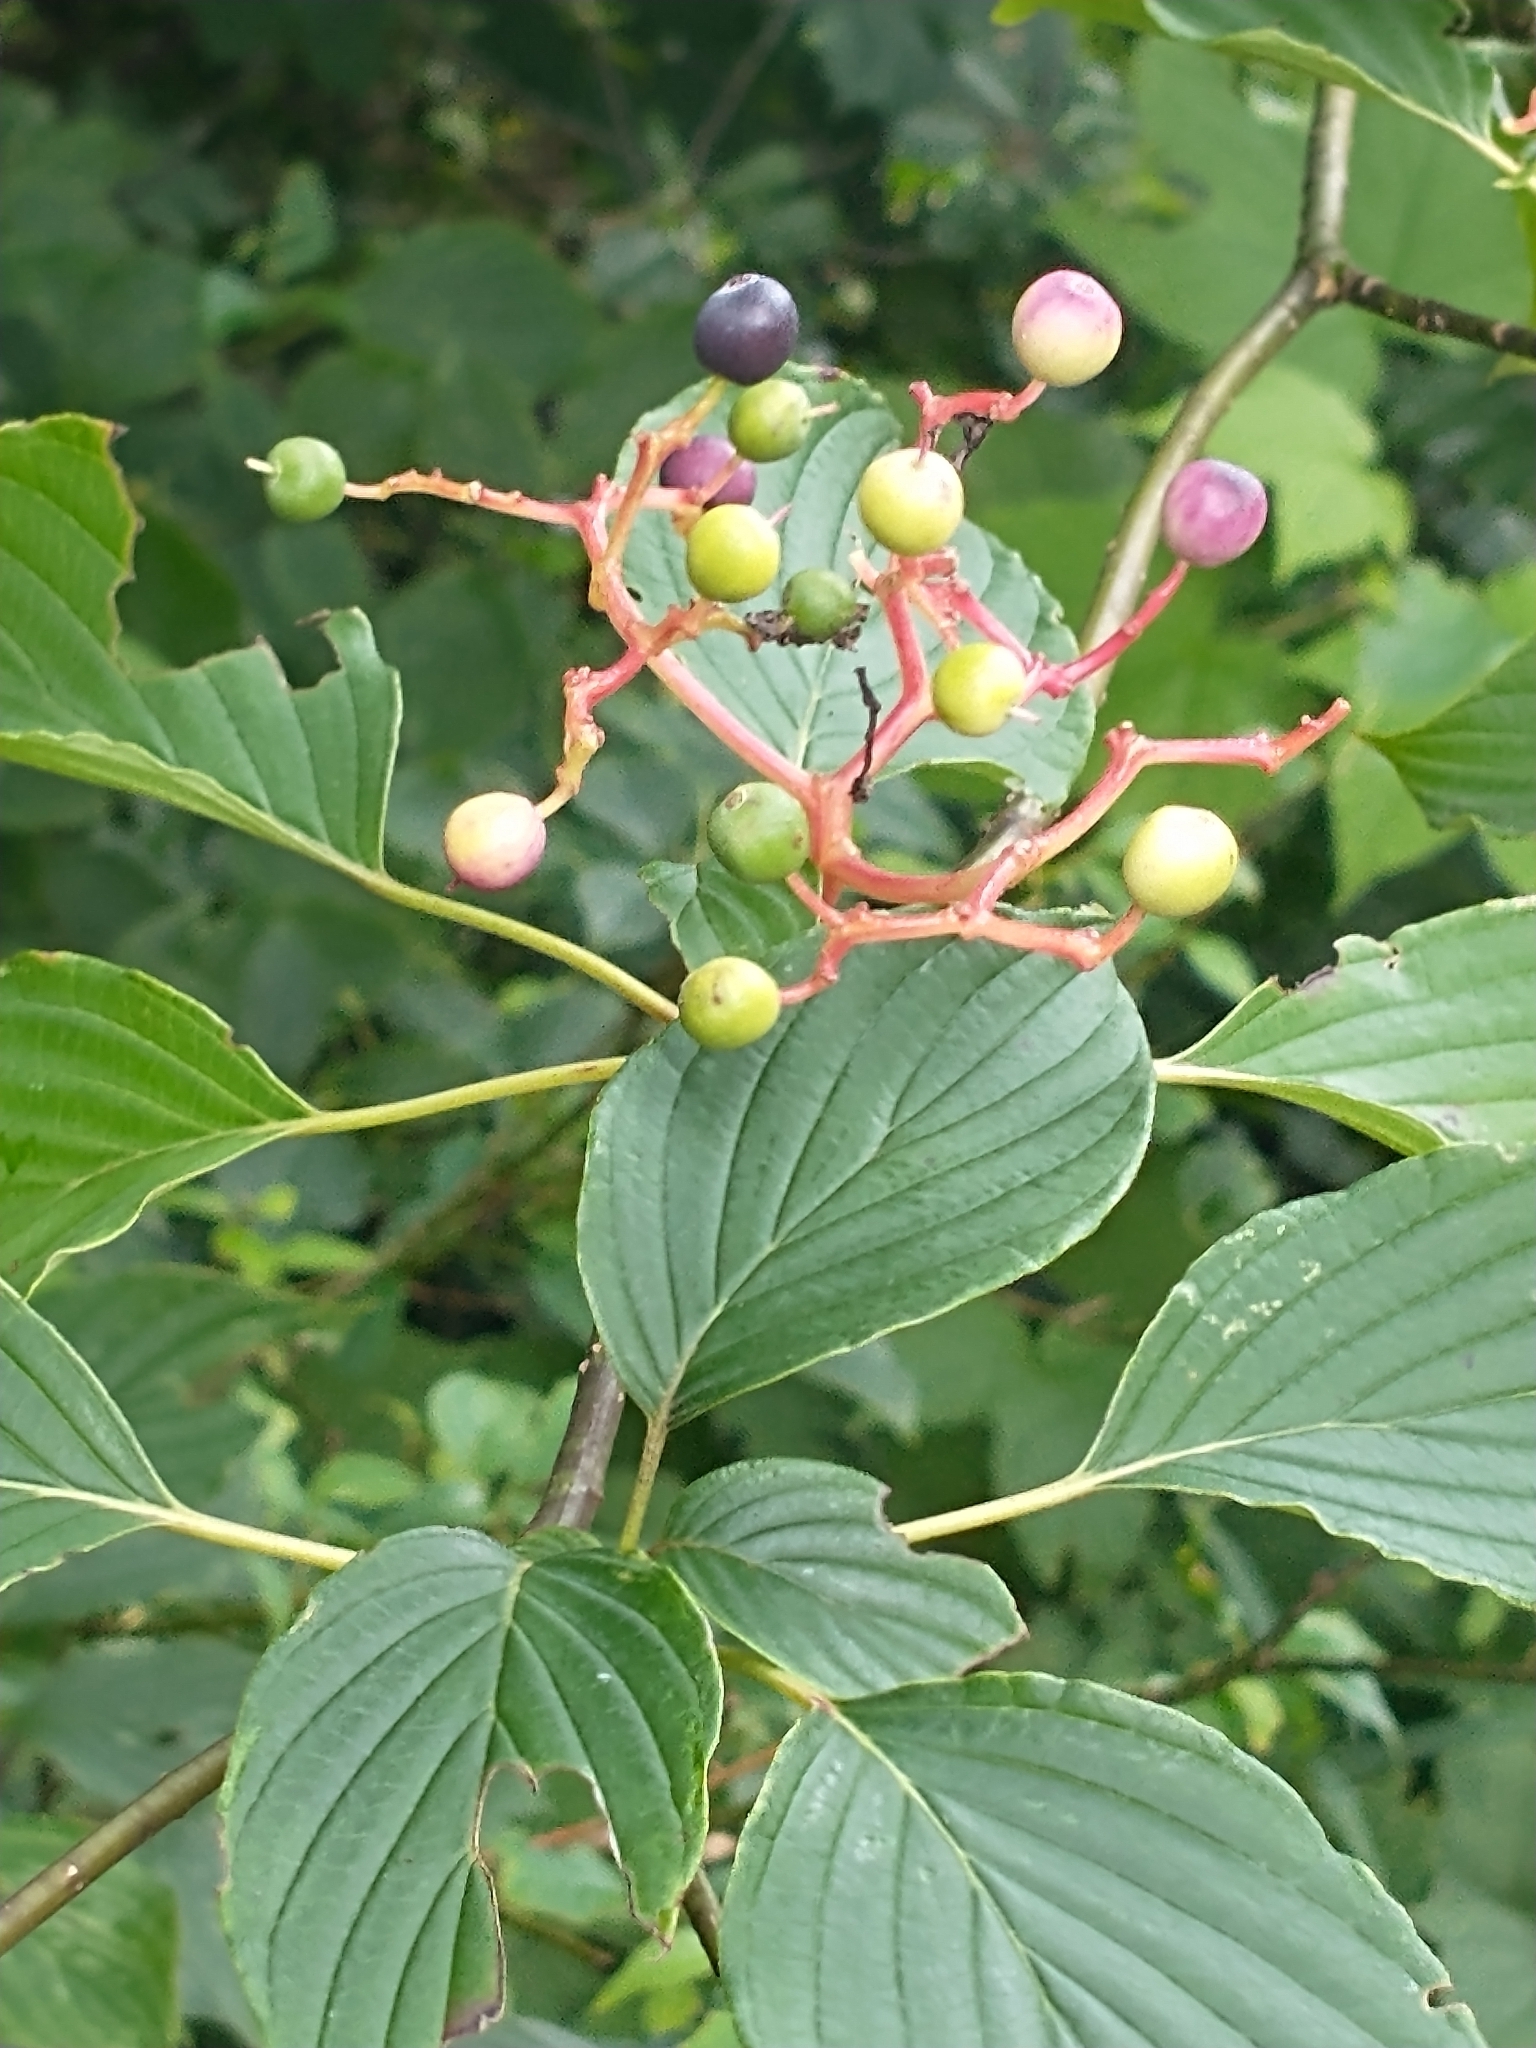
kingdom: Plantae
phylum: Tracheophyta
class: Magnoliopsida
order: Cornales
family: Cornaceae
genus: Cornus
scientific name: Cornus alternifolia
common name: Pagoda dogwood
